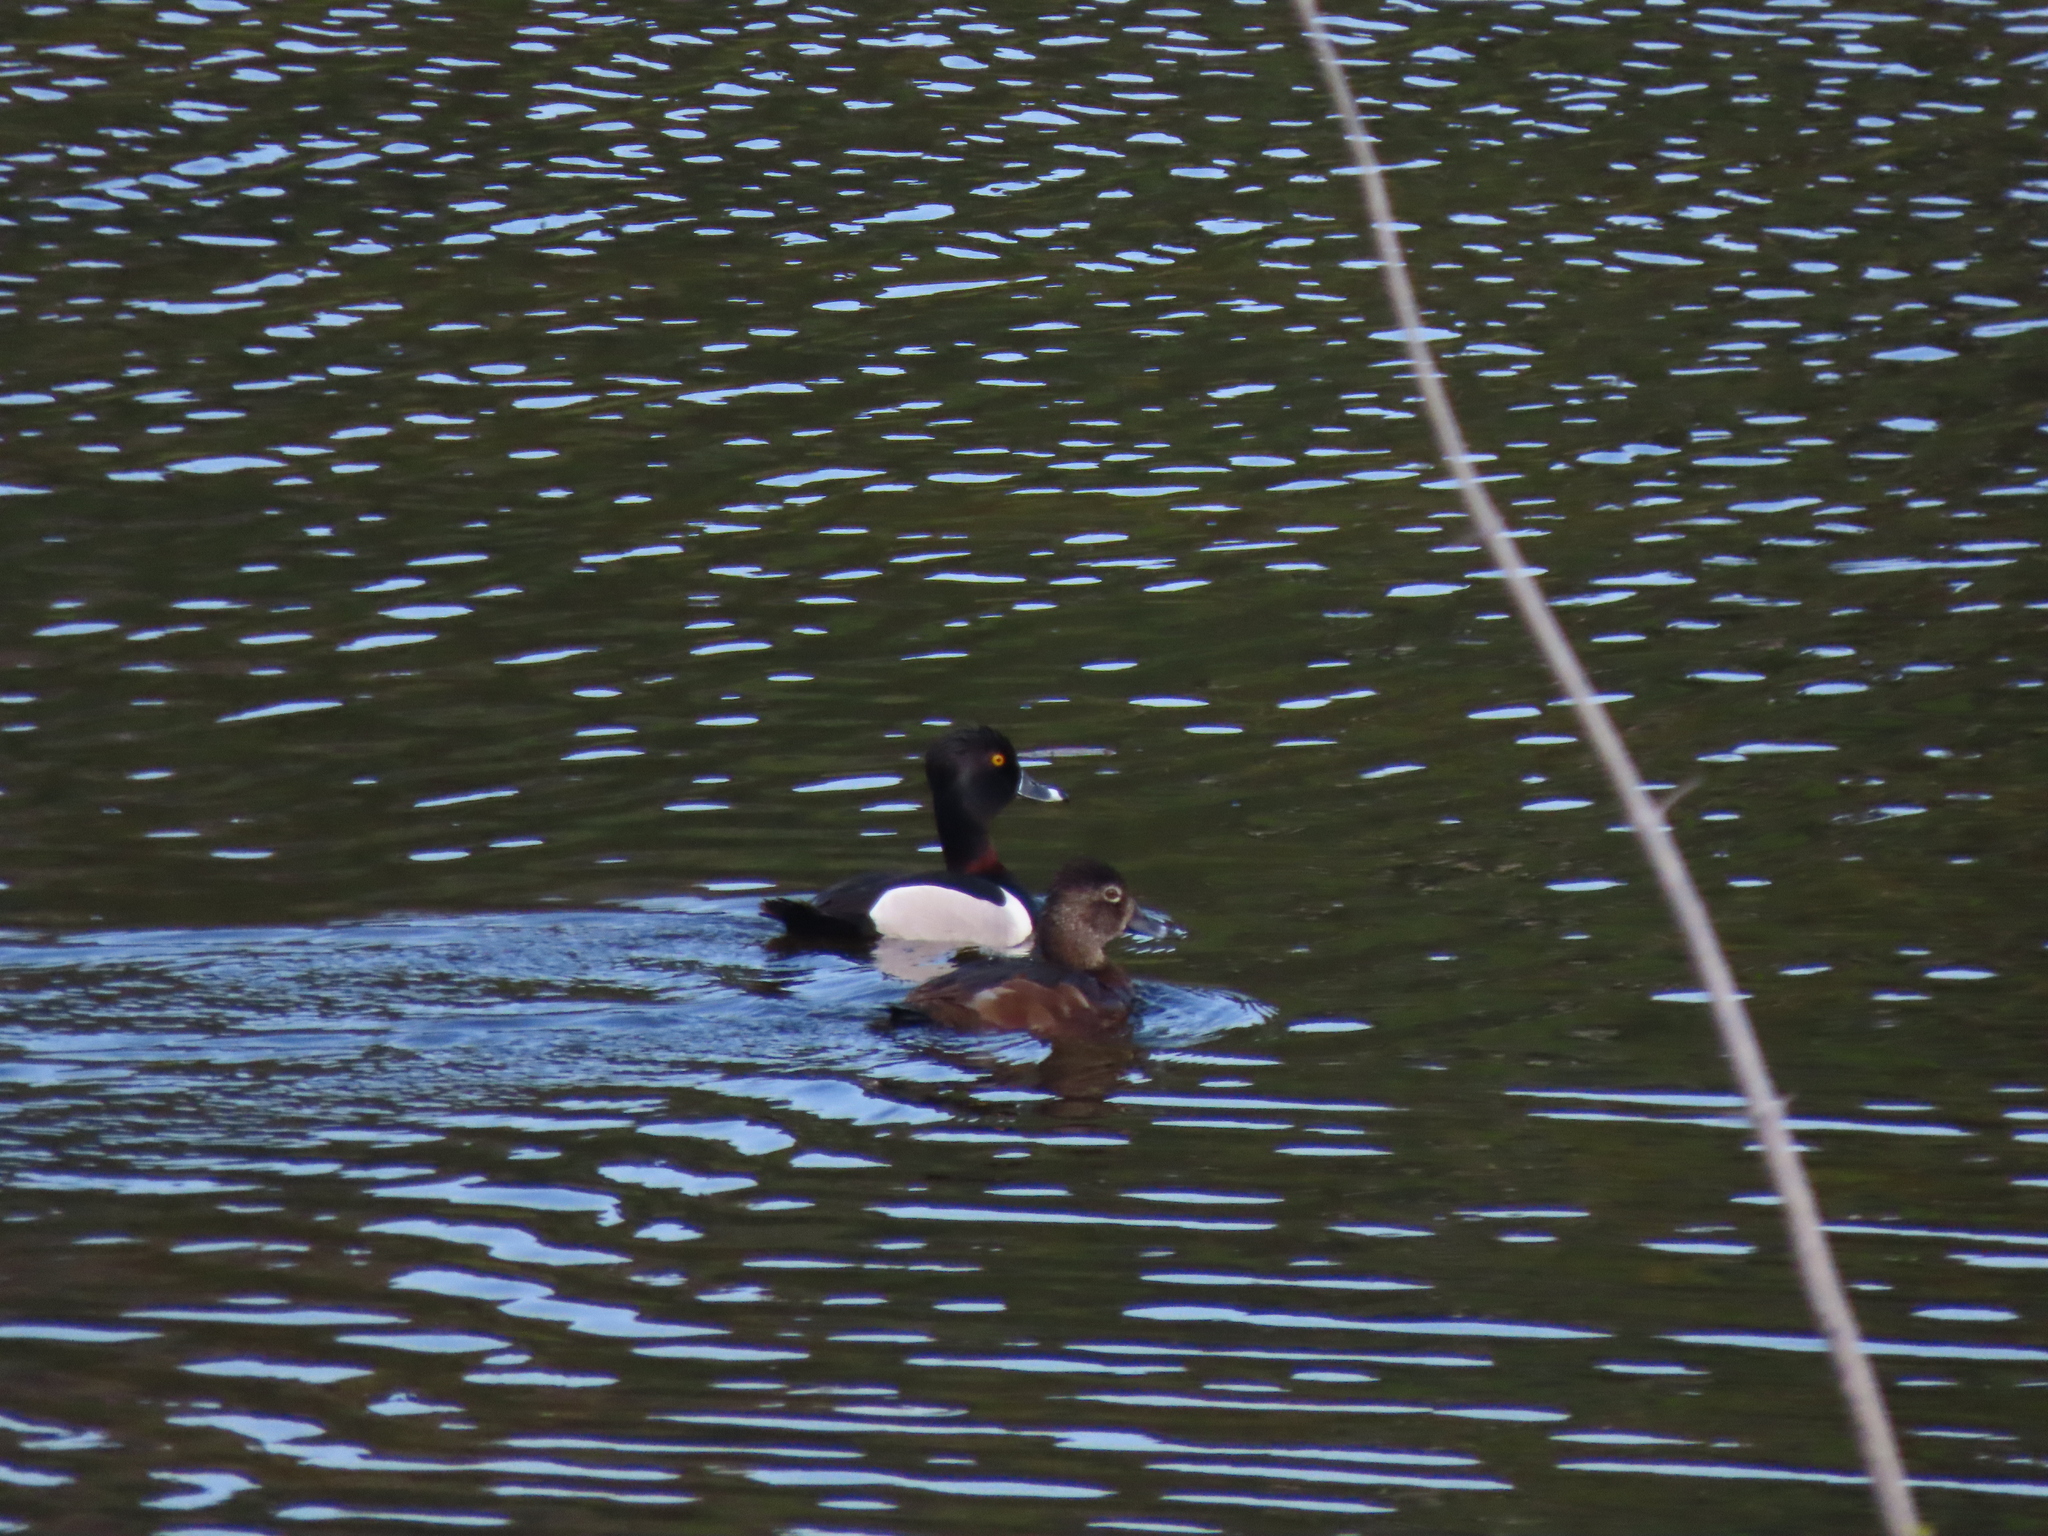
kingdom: Animalia
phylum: Chordata
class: Aves
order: Anseriformes
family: Anatidae
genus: Aythya
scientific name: Aythya collaris
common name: Ring-necked duck
